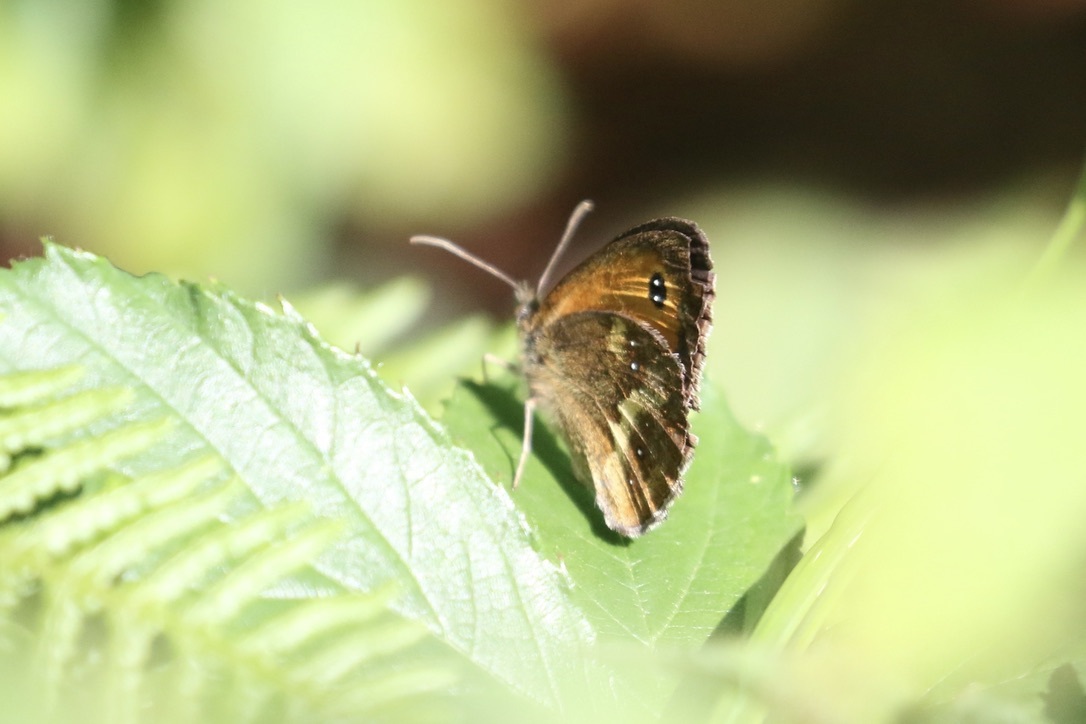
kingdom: Animalia
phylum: Arthropoda
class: Insecta
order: Lepidoptera
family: Nymphalidae
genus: Pyronia
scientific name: Pyronia tithonus
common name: Gatekeeper
